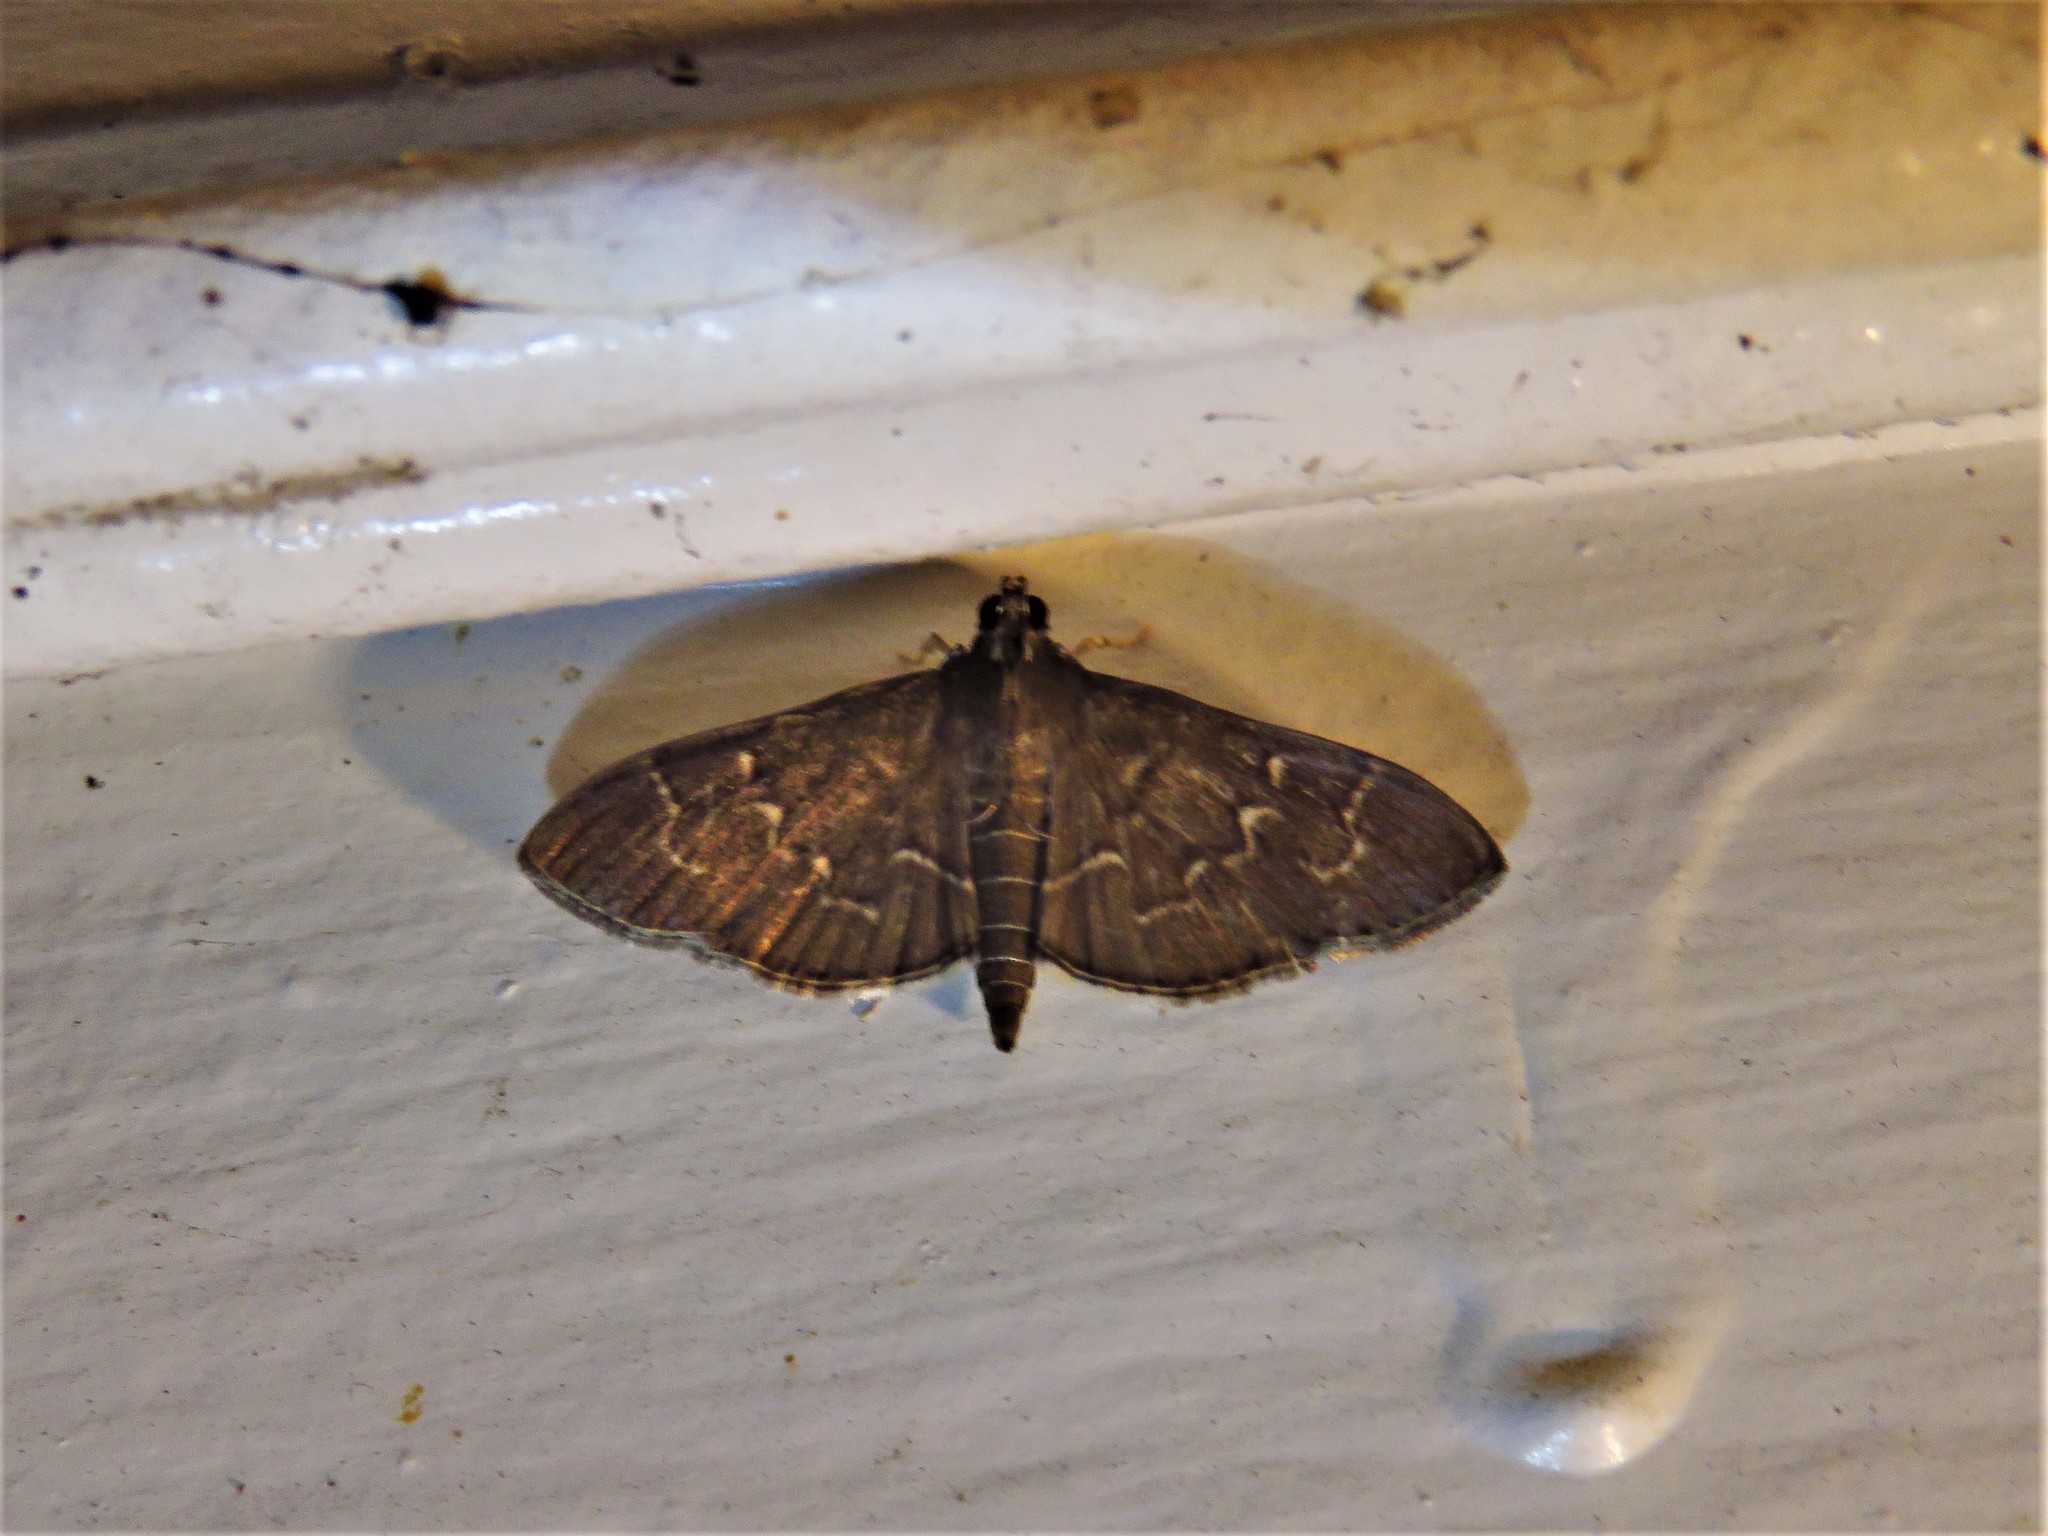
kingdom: Animalia
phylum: Arthropoda
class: Insecta
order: Lepidoptera
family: Crambidae
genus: Pilocrocis
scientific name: Pilocrocis ramentalis
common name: Scraped pilocrocis
